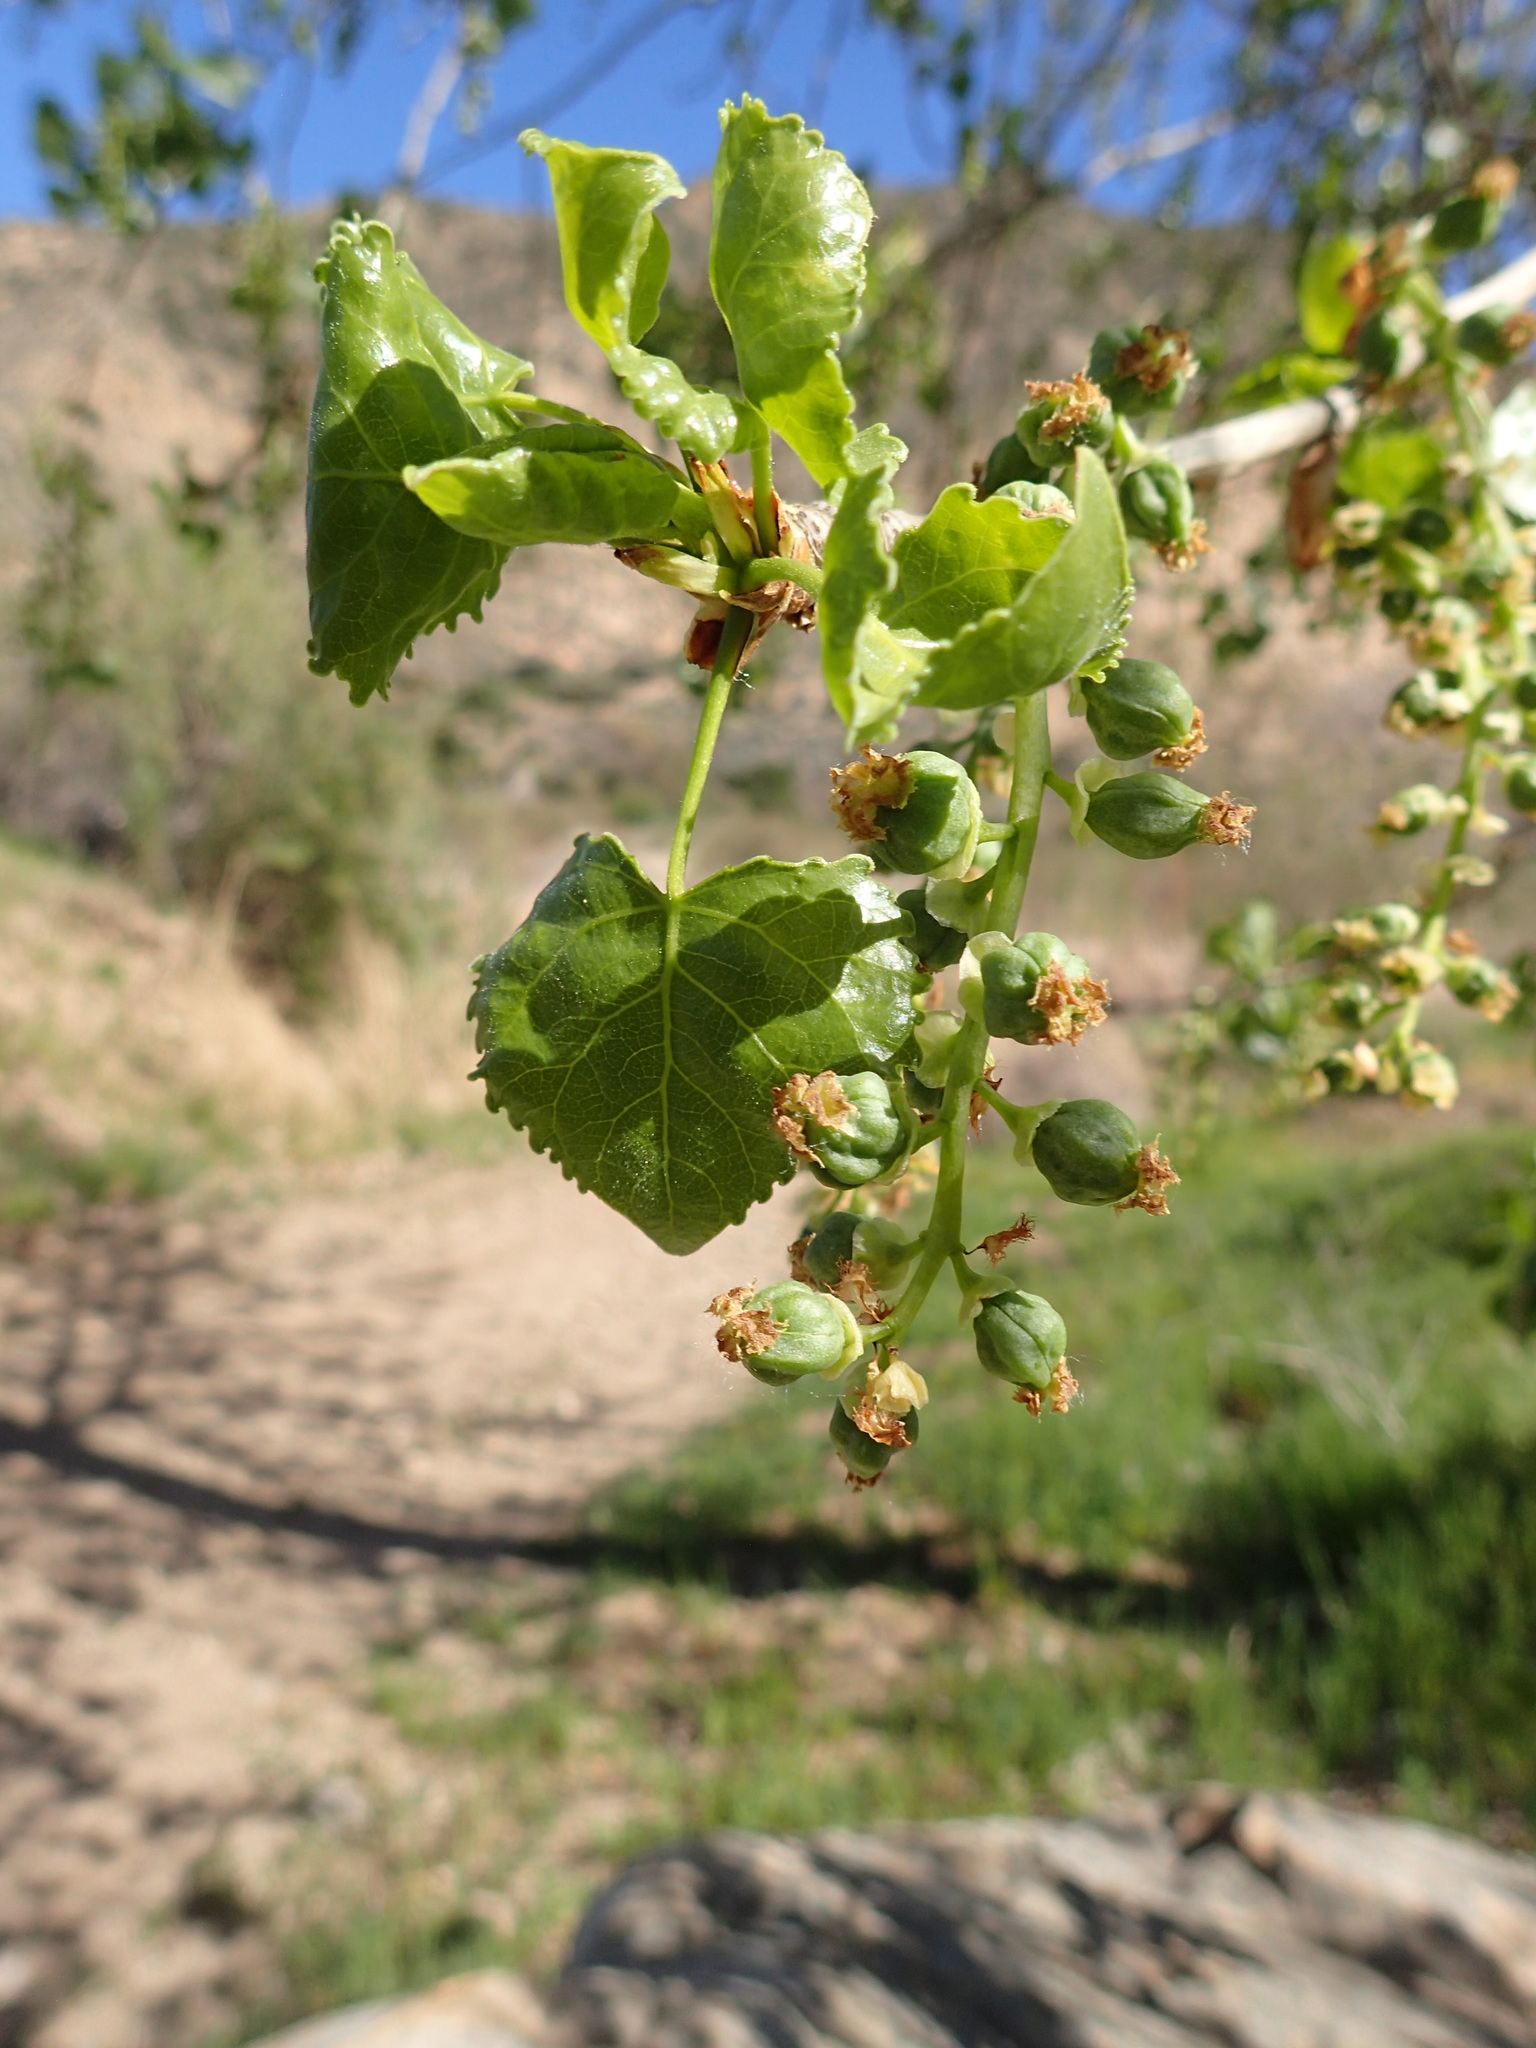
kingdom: Plantae
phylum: Tracheophyta
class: Magnoliopsida
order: Malpighiales
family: Salicaceae
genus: Populus
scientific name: Populus fremontii
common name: Fremont's cottonwood
